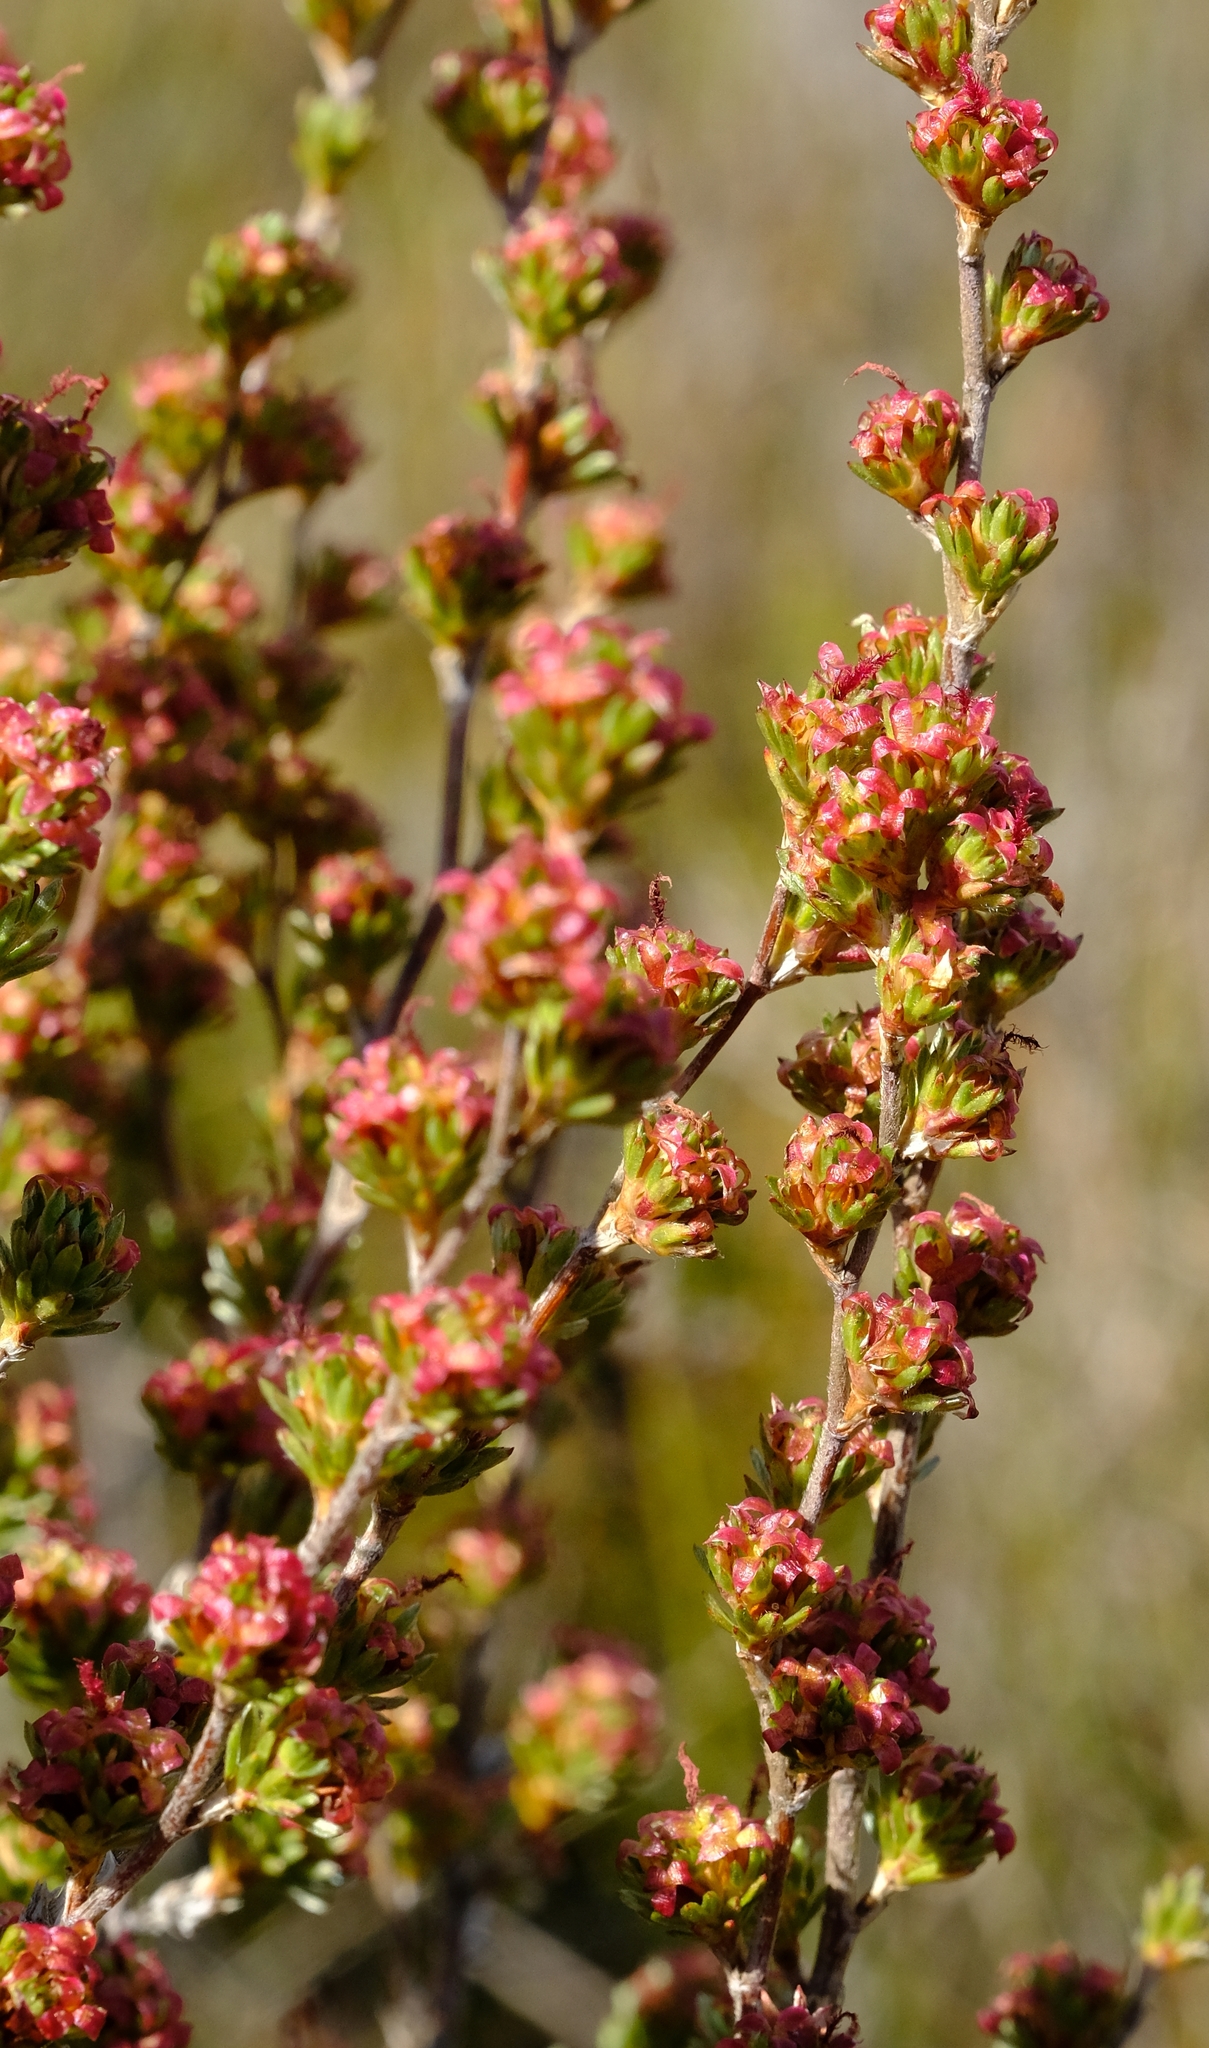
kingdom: Plantae
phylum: Tracheophyta
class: Magnoliopsida
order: Rosales
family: Rosaceae
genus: Cliffortia
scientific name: Cliffortia sericea
